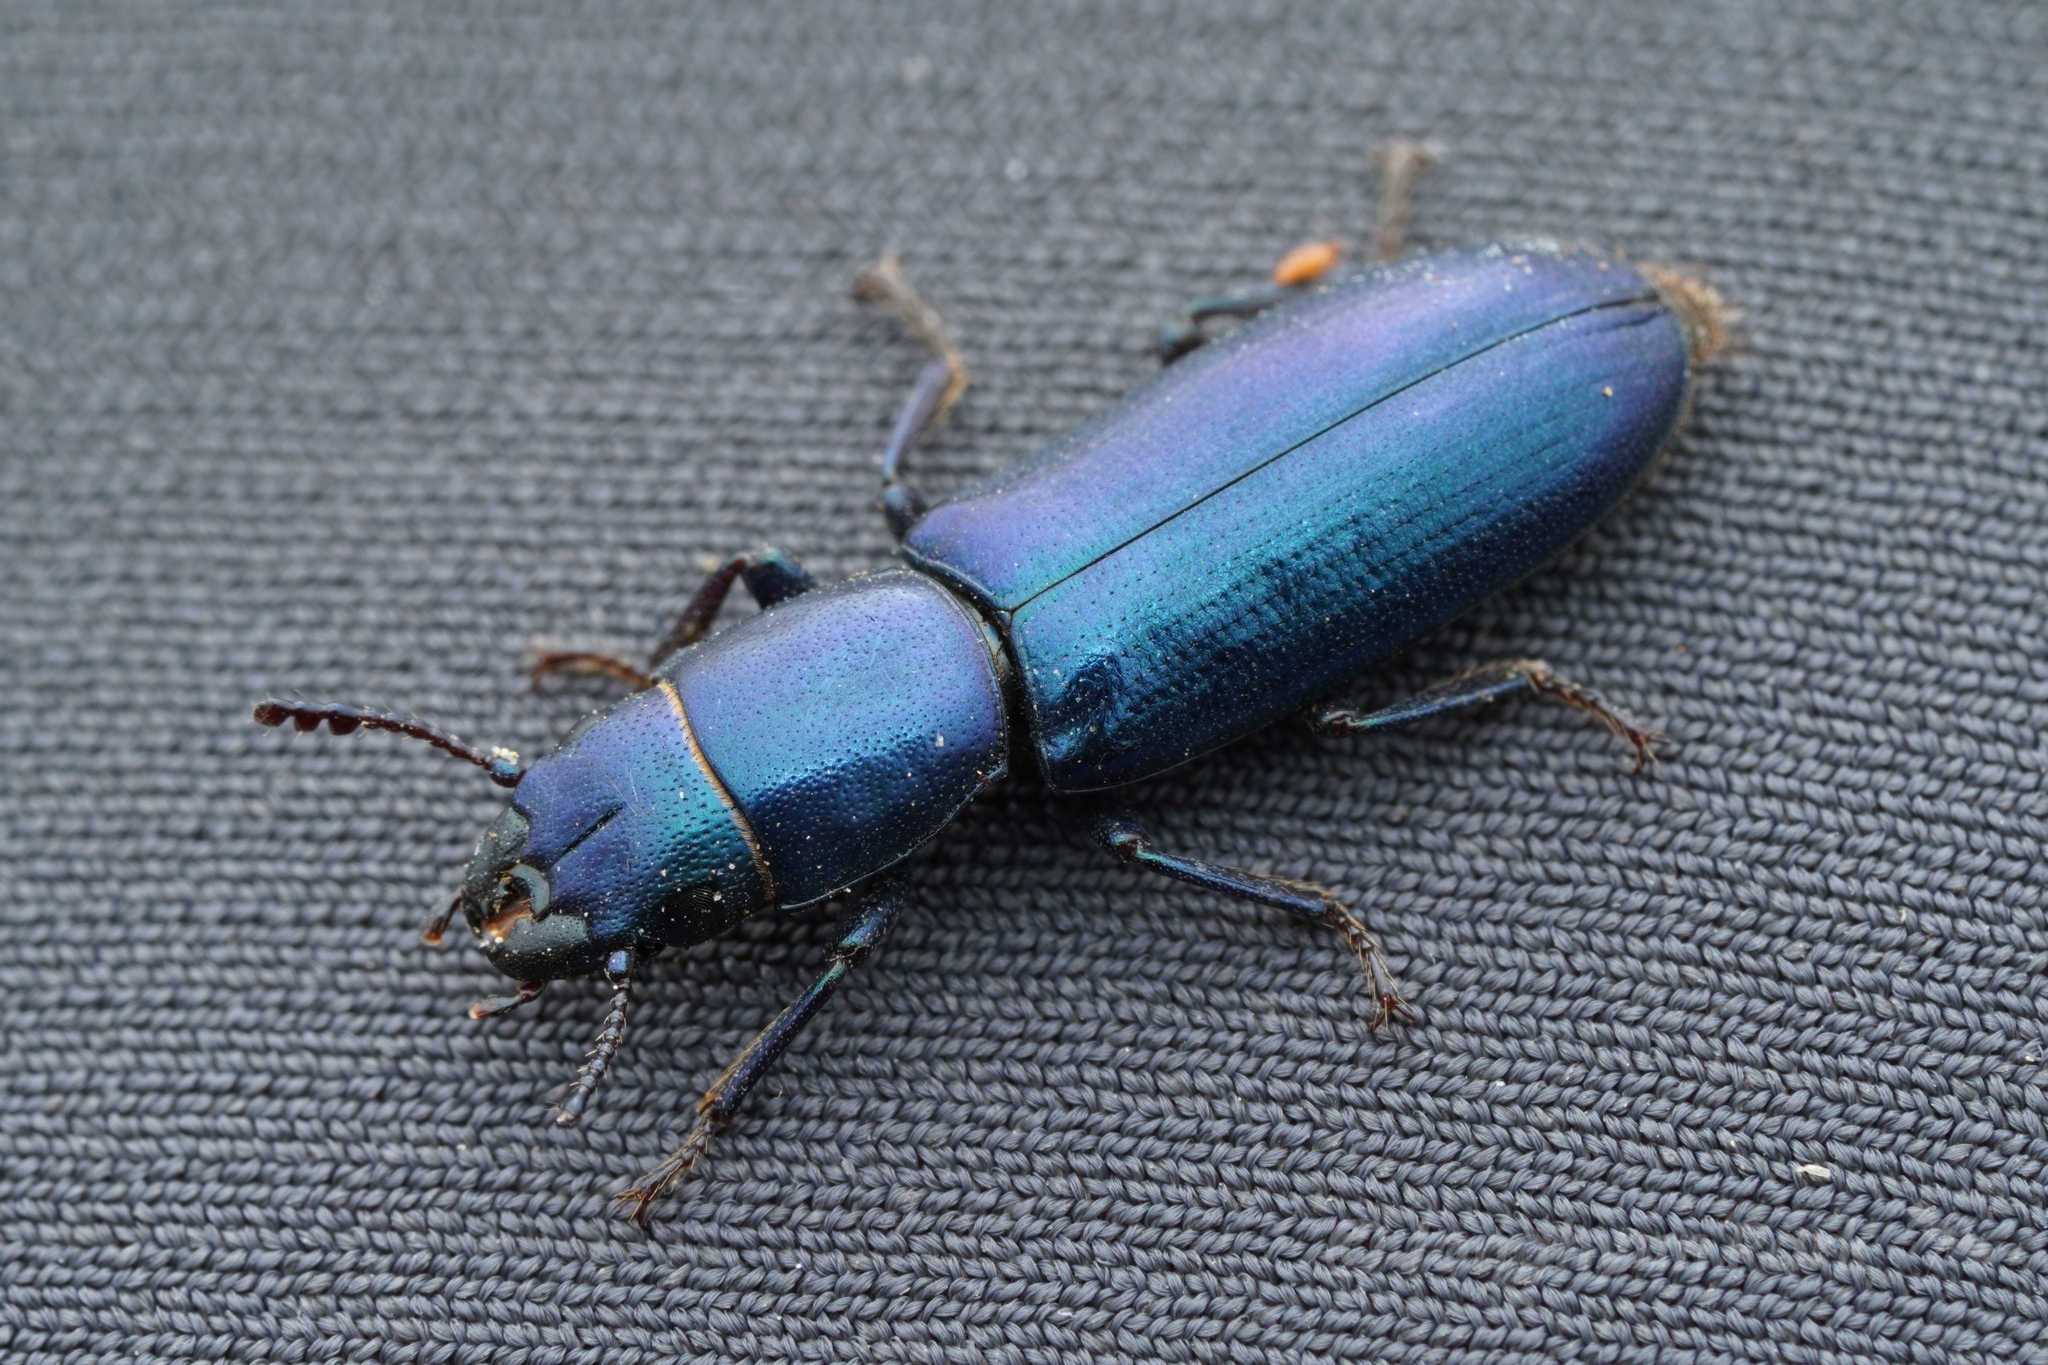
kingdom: Animalia
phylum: Arthropoda
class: Insecta
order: Coleoptera
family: Trogossitidae
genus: Temnoscheila
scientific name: Temnoscheila chlorodia
